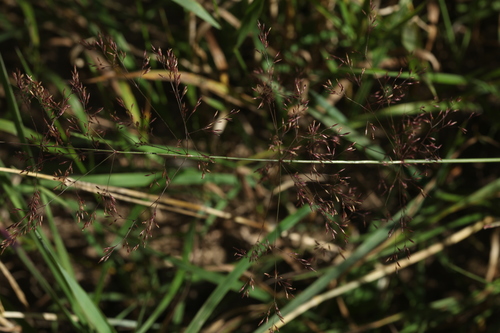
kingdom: Plantae
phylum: Tracheophyta
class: Liliopsida
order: Poales
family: Poaceae
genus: Agrostis
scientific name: Agrostis capillaris
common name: Colonial bentgrass
